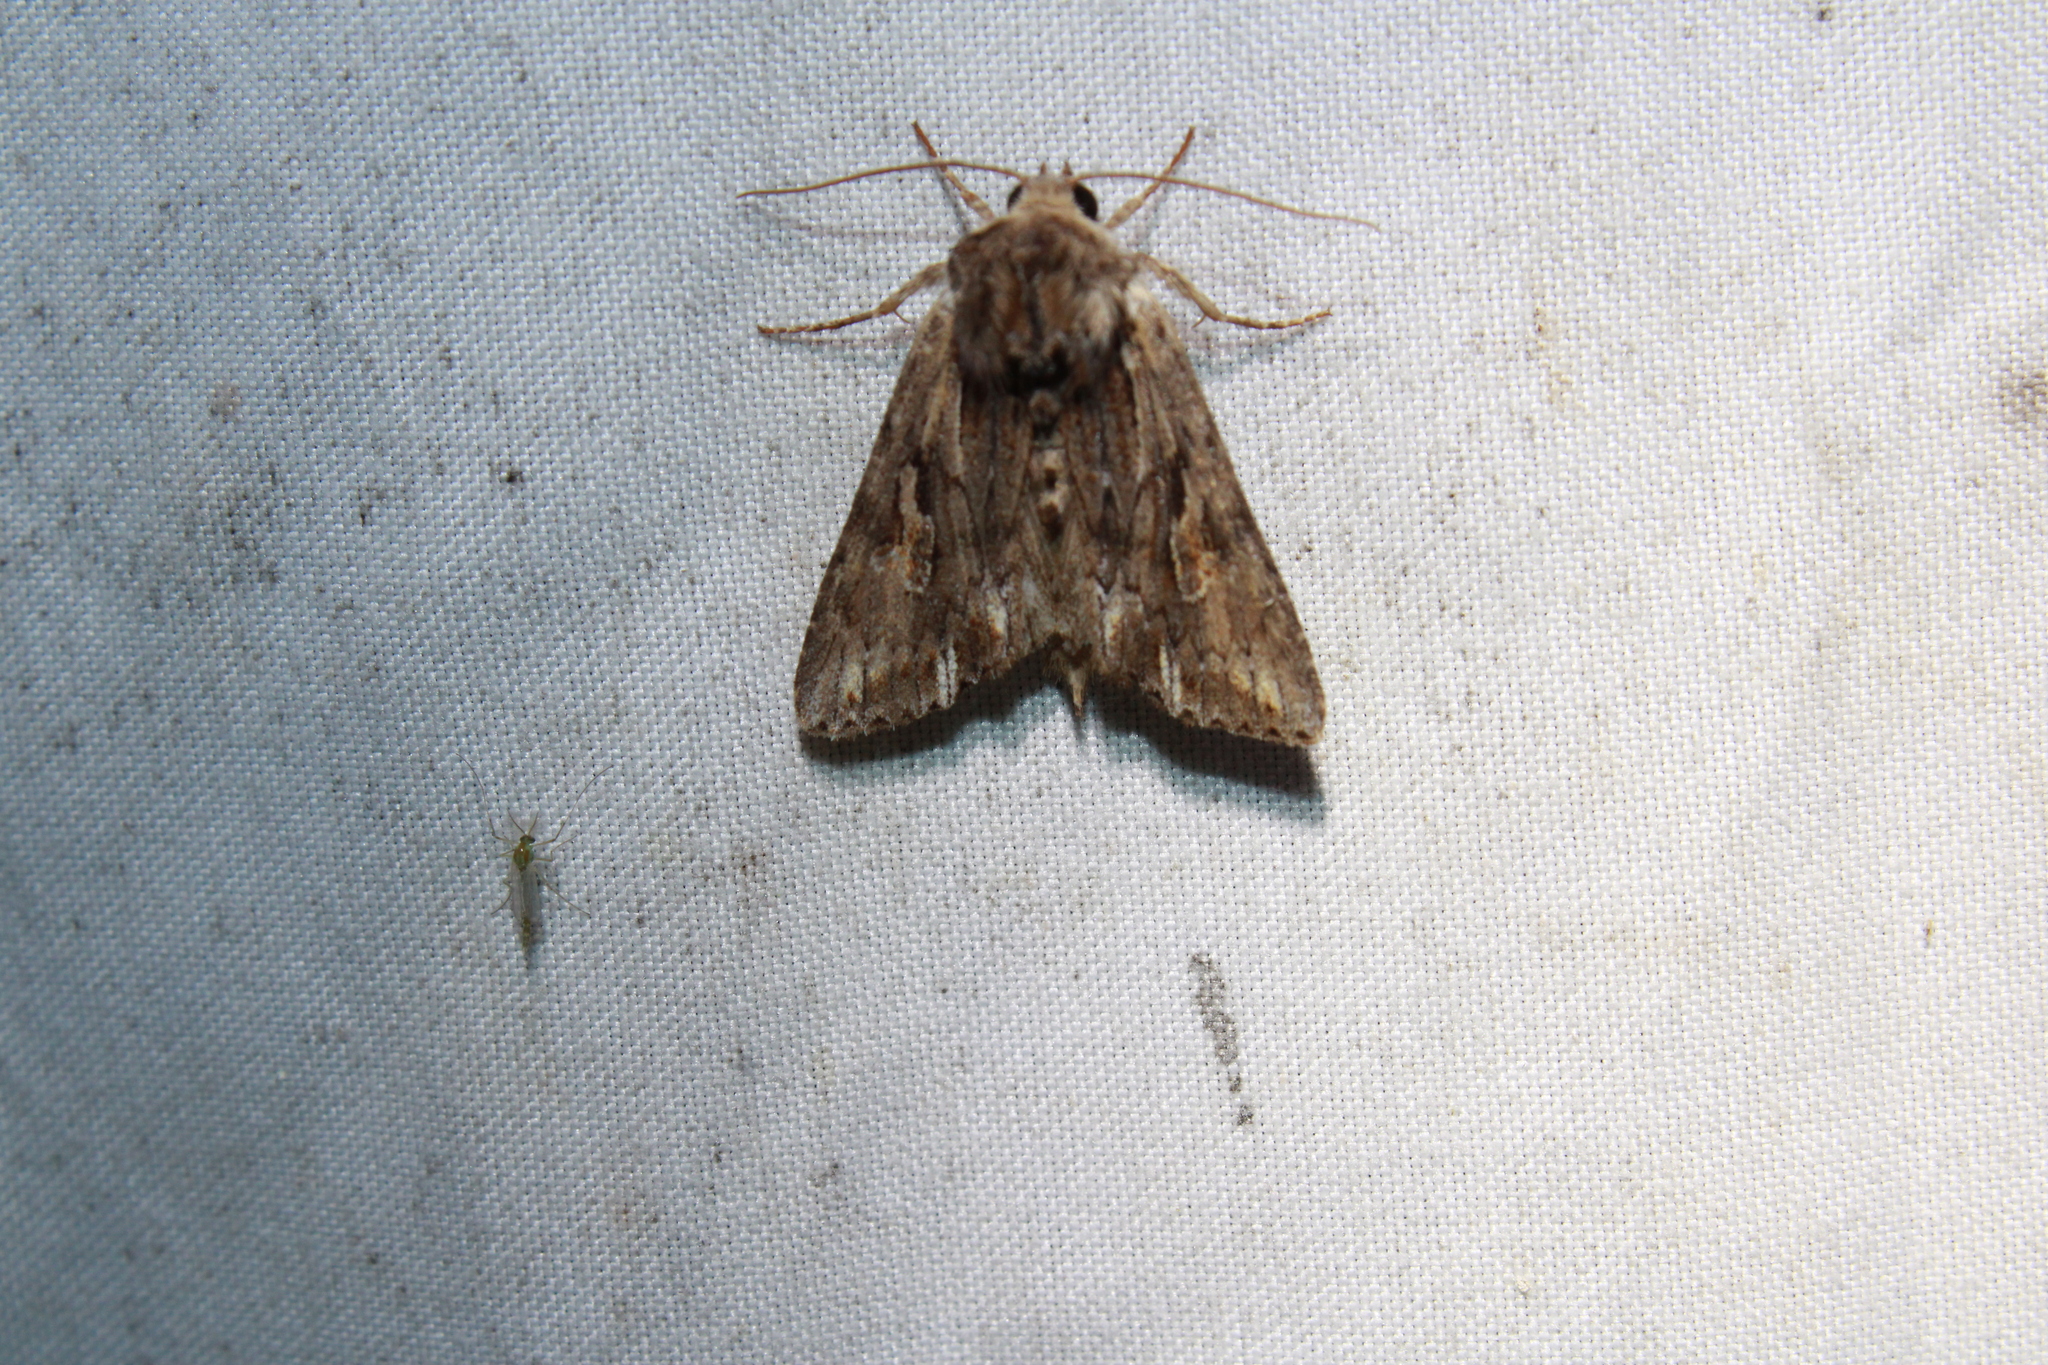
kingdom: Animalia
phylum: Arthropoda
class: Insecta
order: Lepidoptera
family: Noctuidae
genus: Achatia
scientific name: Achatia evicta
